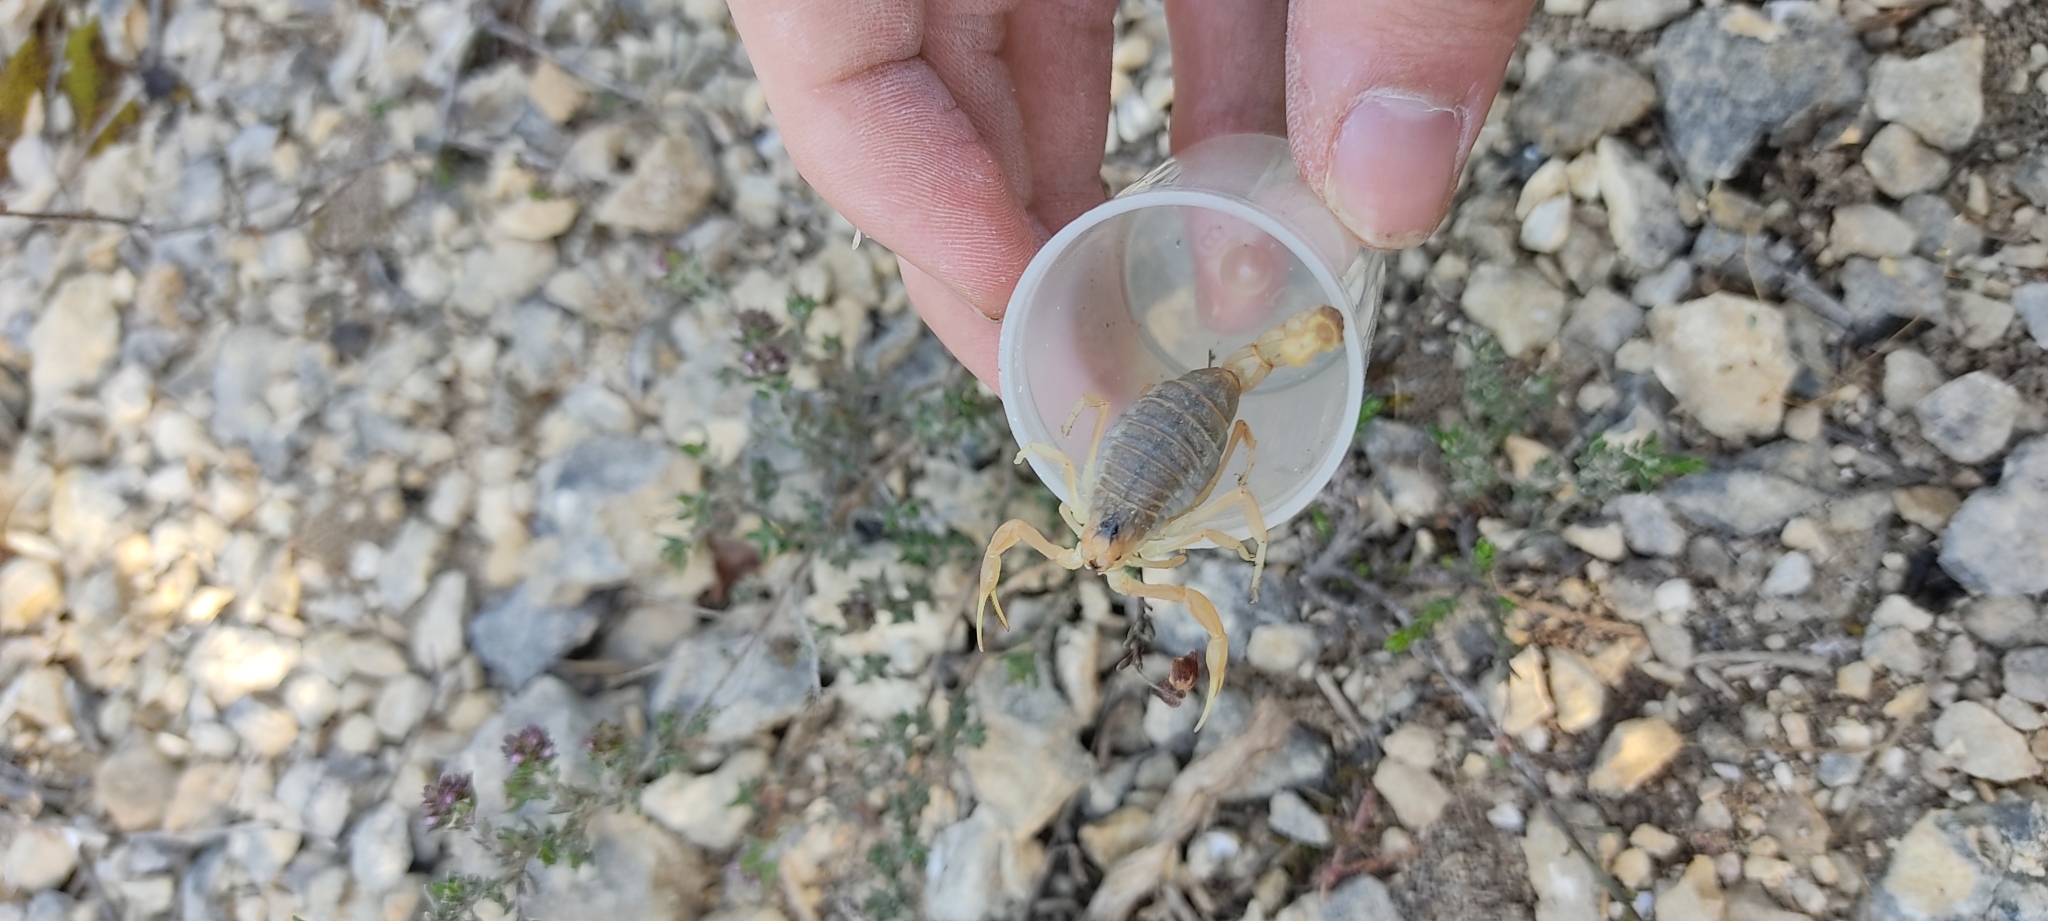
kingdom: Animalia
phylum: Arthropoda
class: Arachnida
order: Scorpiones
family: Buthidae
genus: Buthus
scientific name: Buthus occitanus
